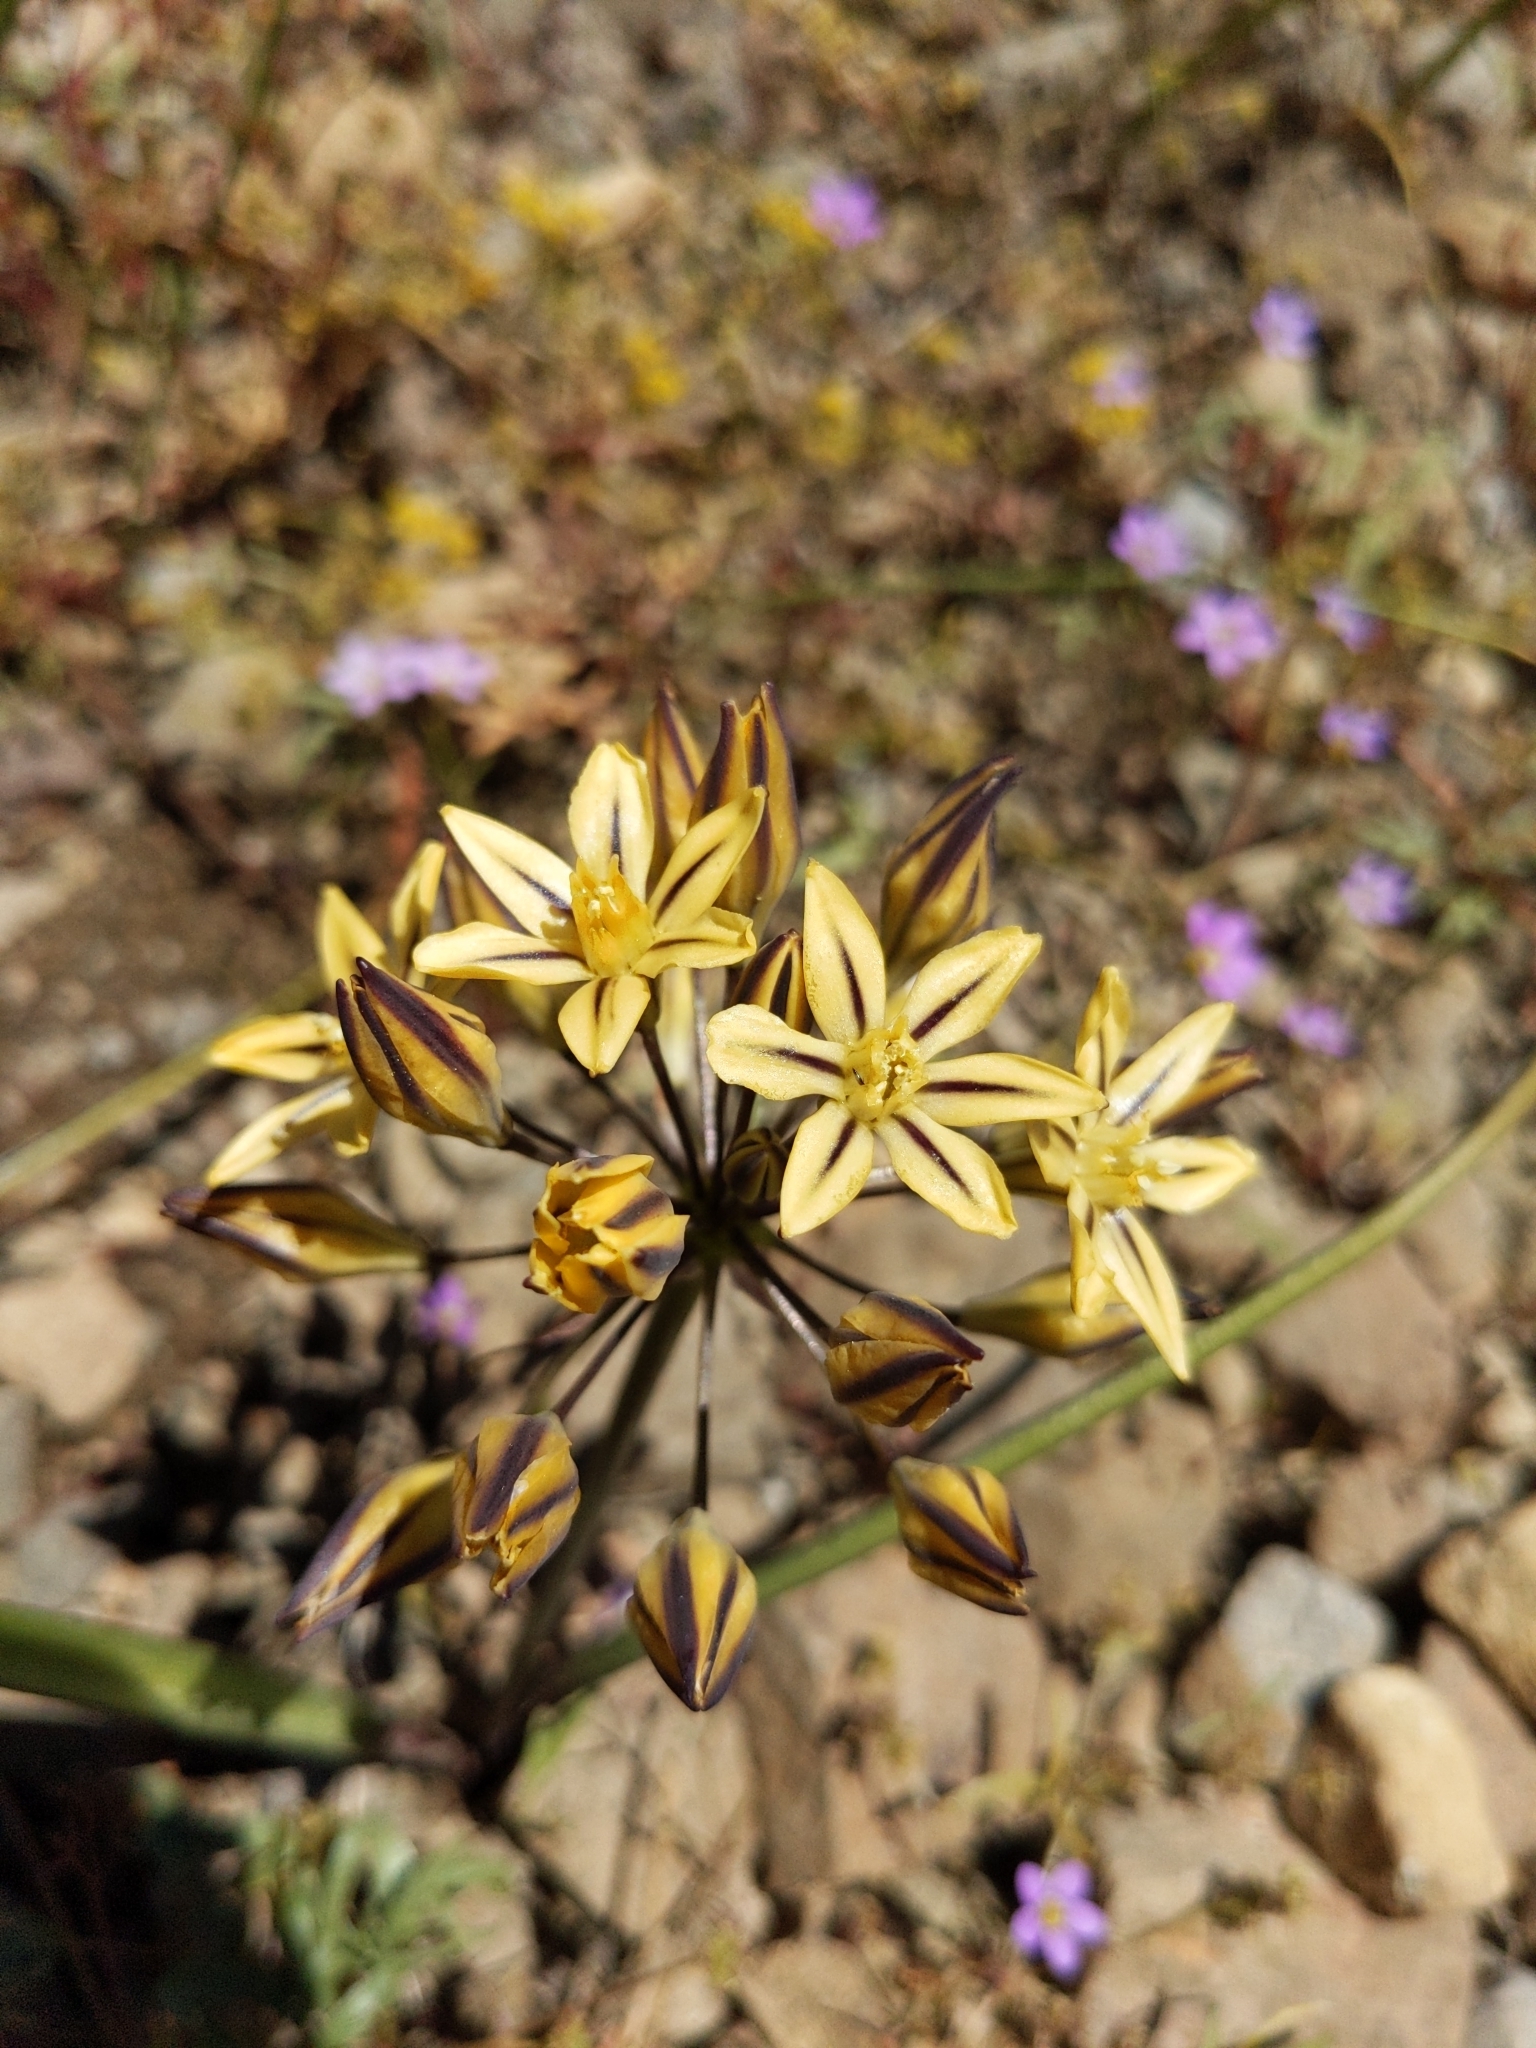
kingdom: Plantae
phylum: Tracheophyta
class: Liliopsida
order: Asparagales
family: Asparagaceae
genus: Triteleia
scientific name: Triteleia ixioides
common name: Yellow-brodiaea
